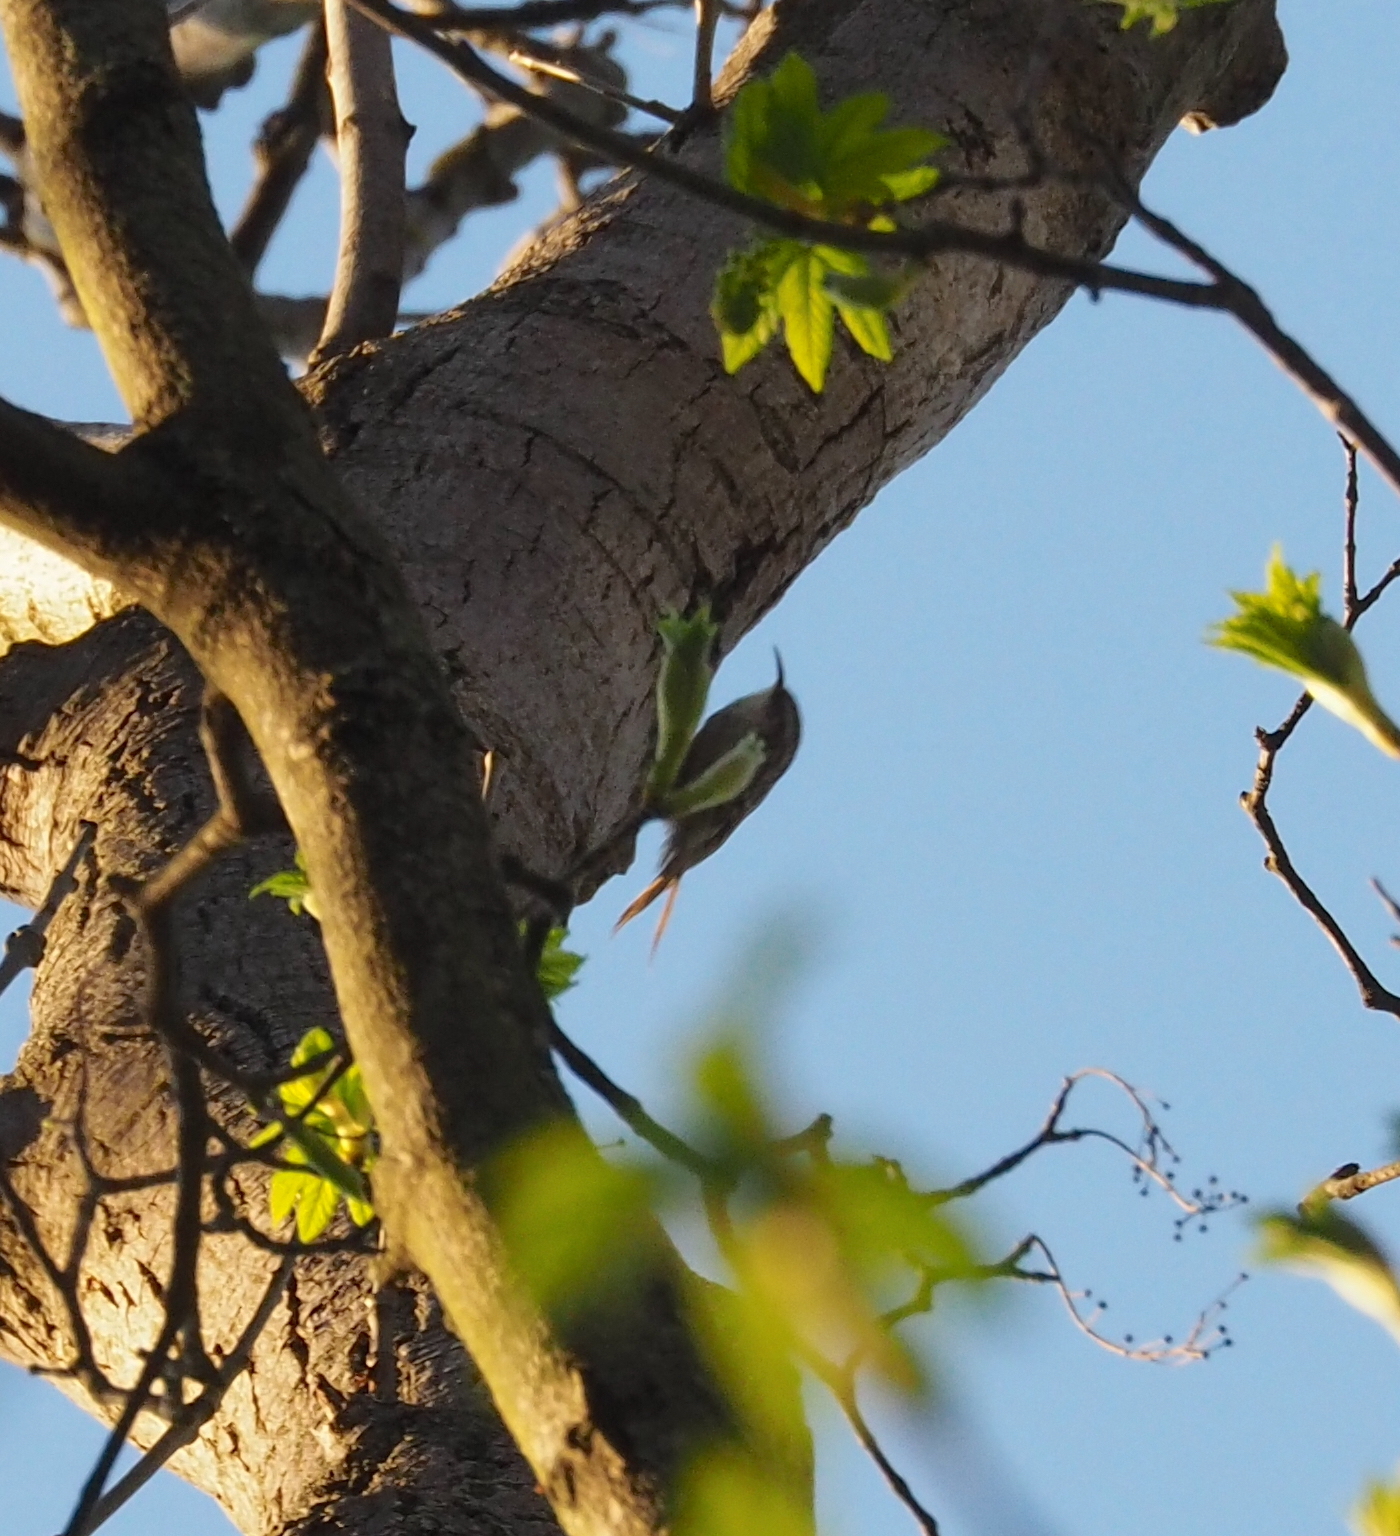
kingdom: Animalia
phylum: Chordata
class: Aves
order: Passeriformes
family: Certhiidae
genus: Certhia
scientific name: Certhia brachydactyla
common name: Short-toed treecreeper
